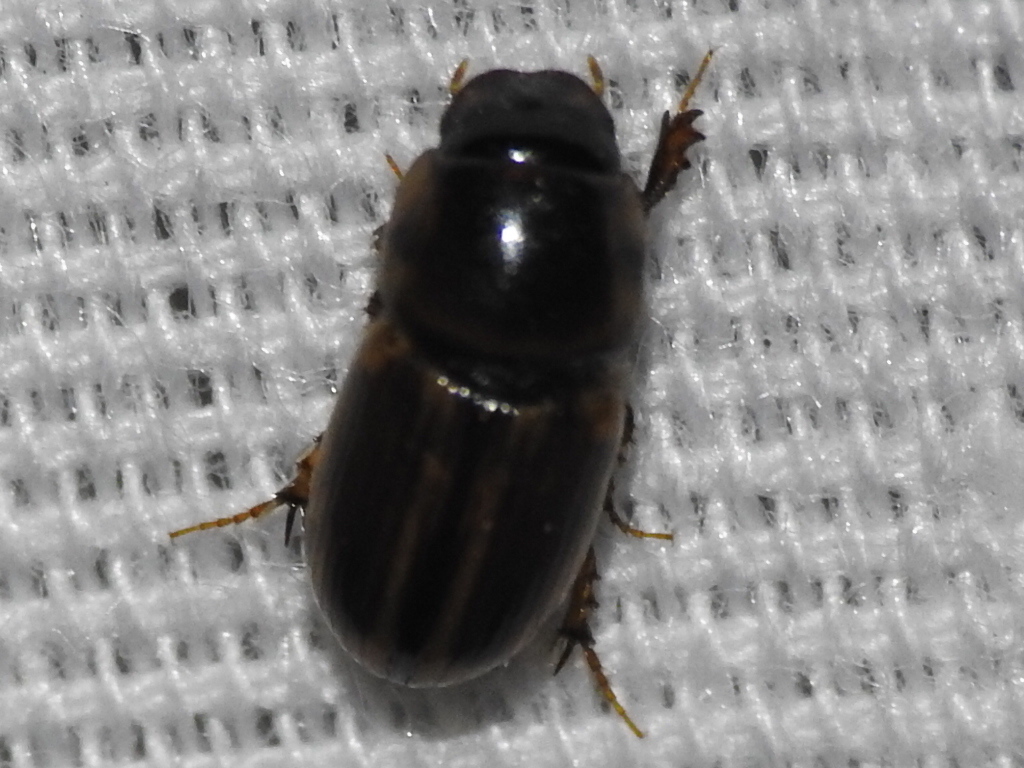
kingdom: Animalia
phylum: Arthropoda
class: Insecta
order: Coleoptera
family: Scarabaeidae
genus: Labarrus
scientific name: Labarrus lividus
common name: Scarab beetle
